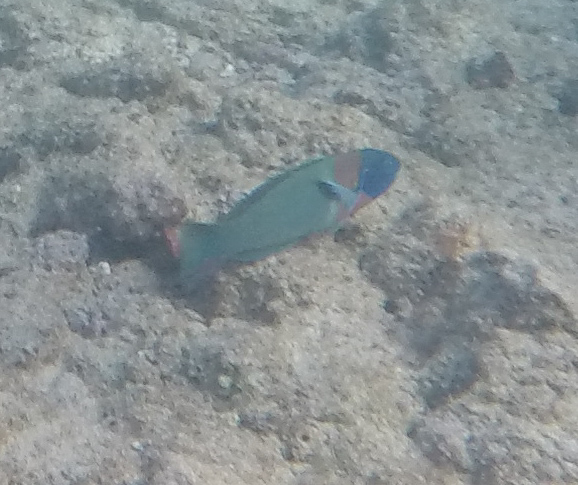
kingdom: Animalia
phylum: Chordata
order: Perciformes
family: Labridae
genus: Thalassoma
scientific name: Thalassoma duperrey
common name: Saddle wrasse
